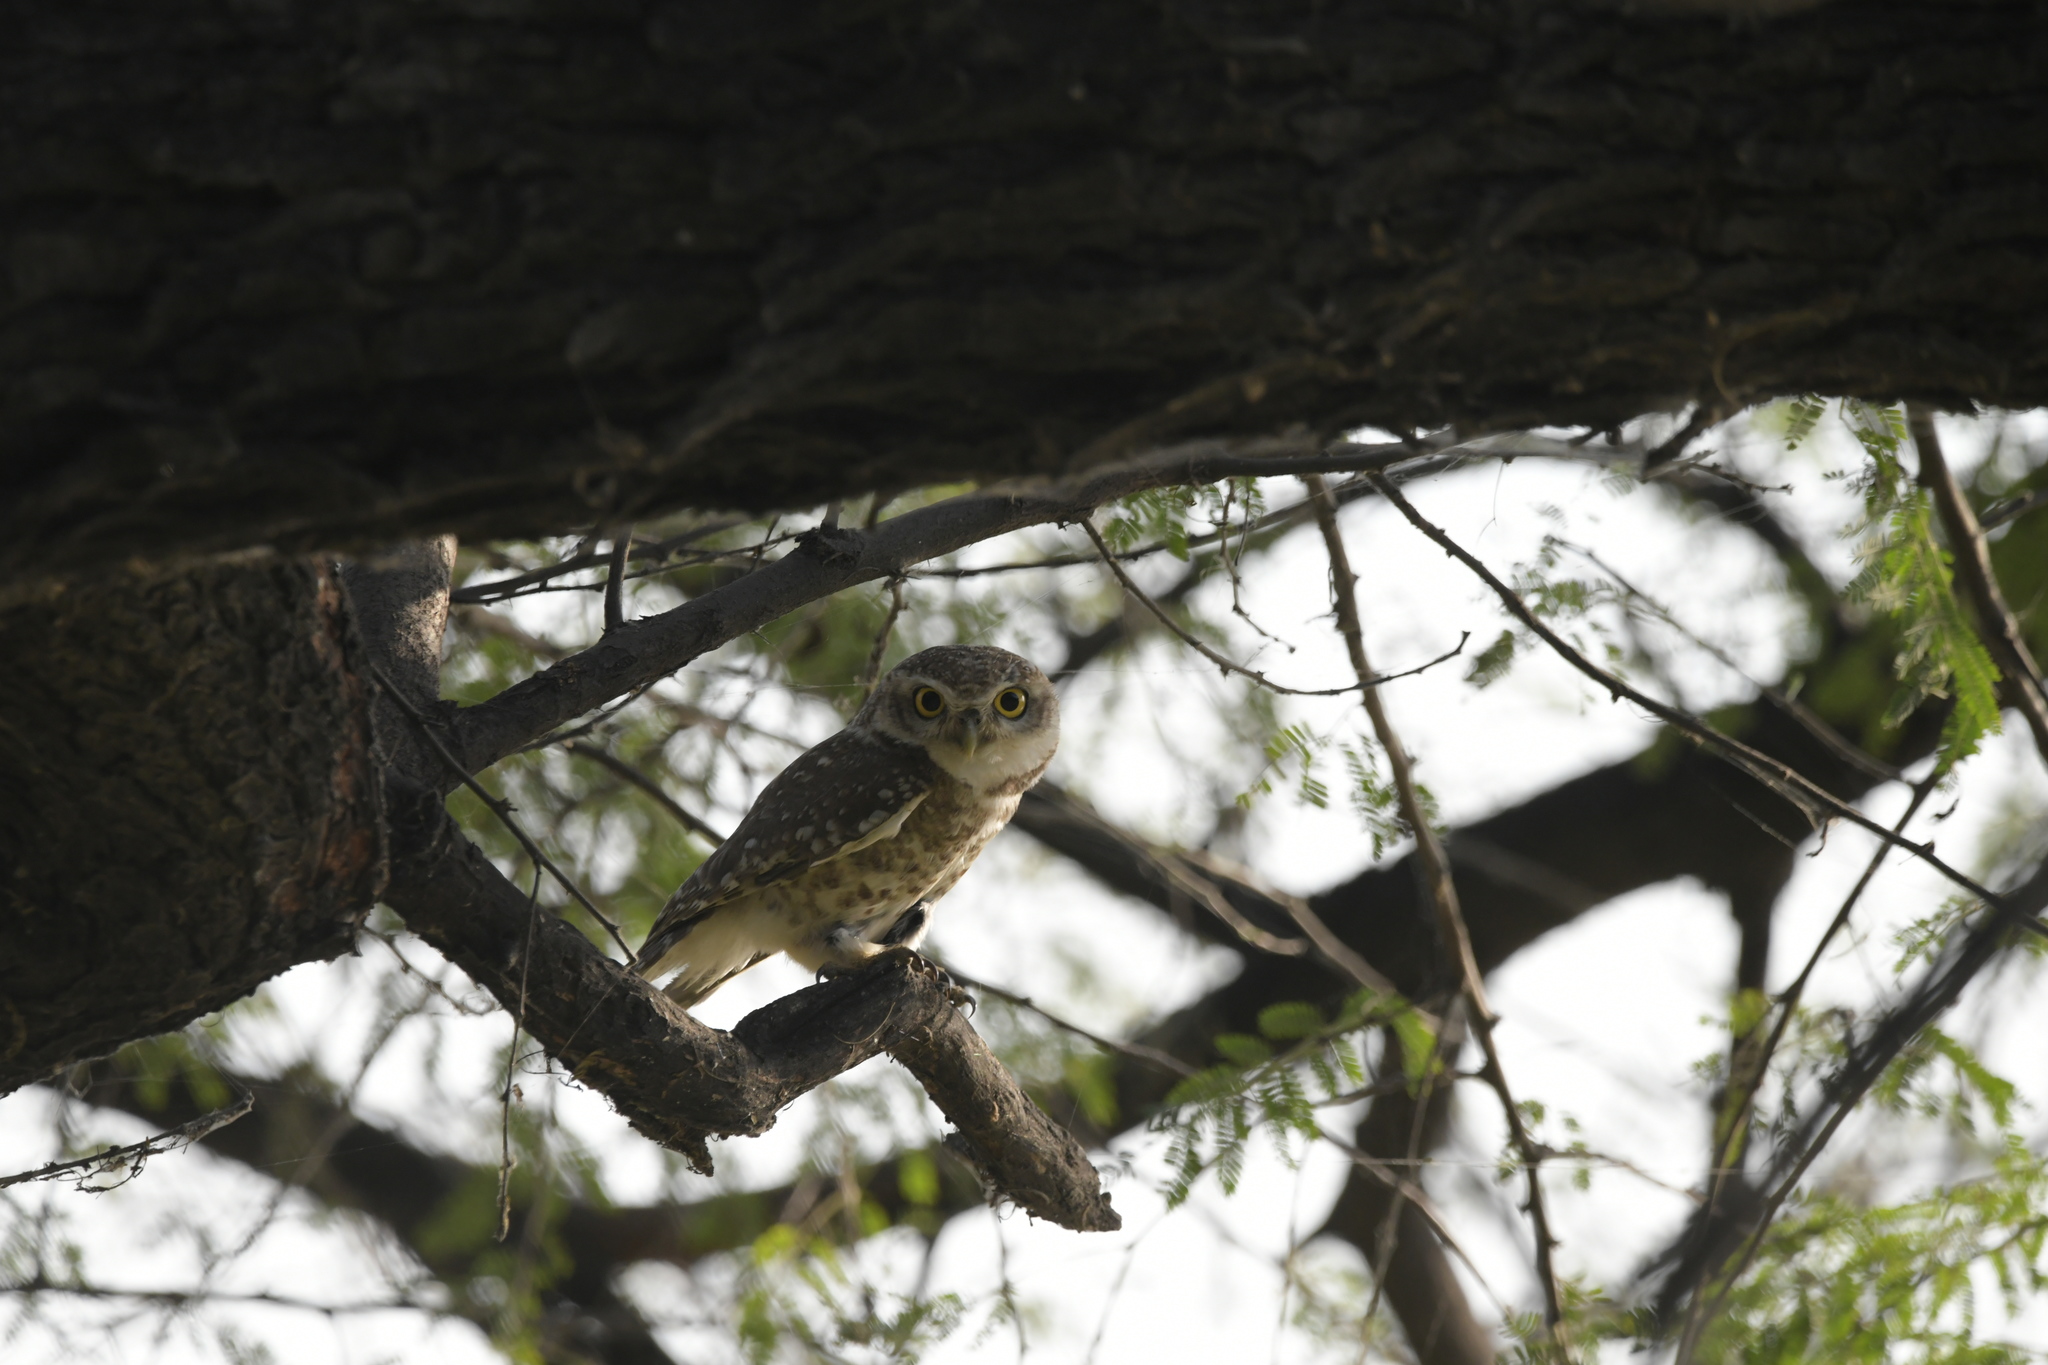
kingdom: Animalia
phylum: Chordata
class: Aves
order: Strigiformes
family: Strigidae
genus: Athene
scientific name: Athene brama
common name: Spotted owlet
